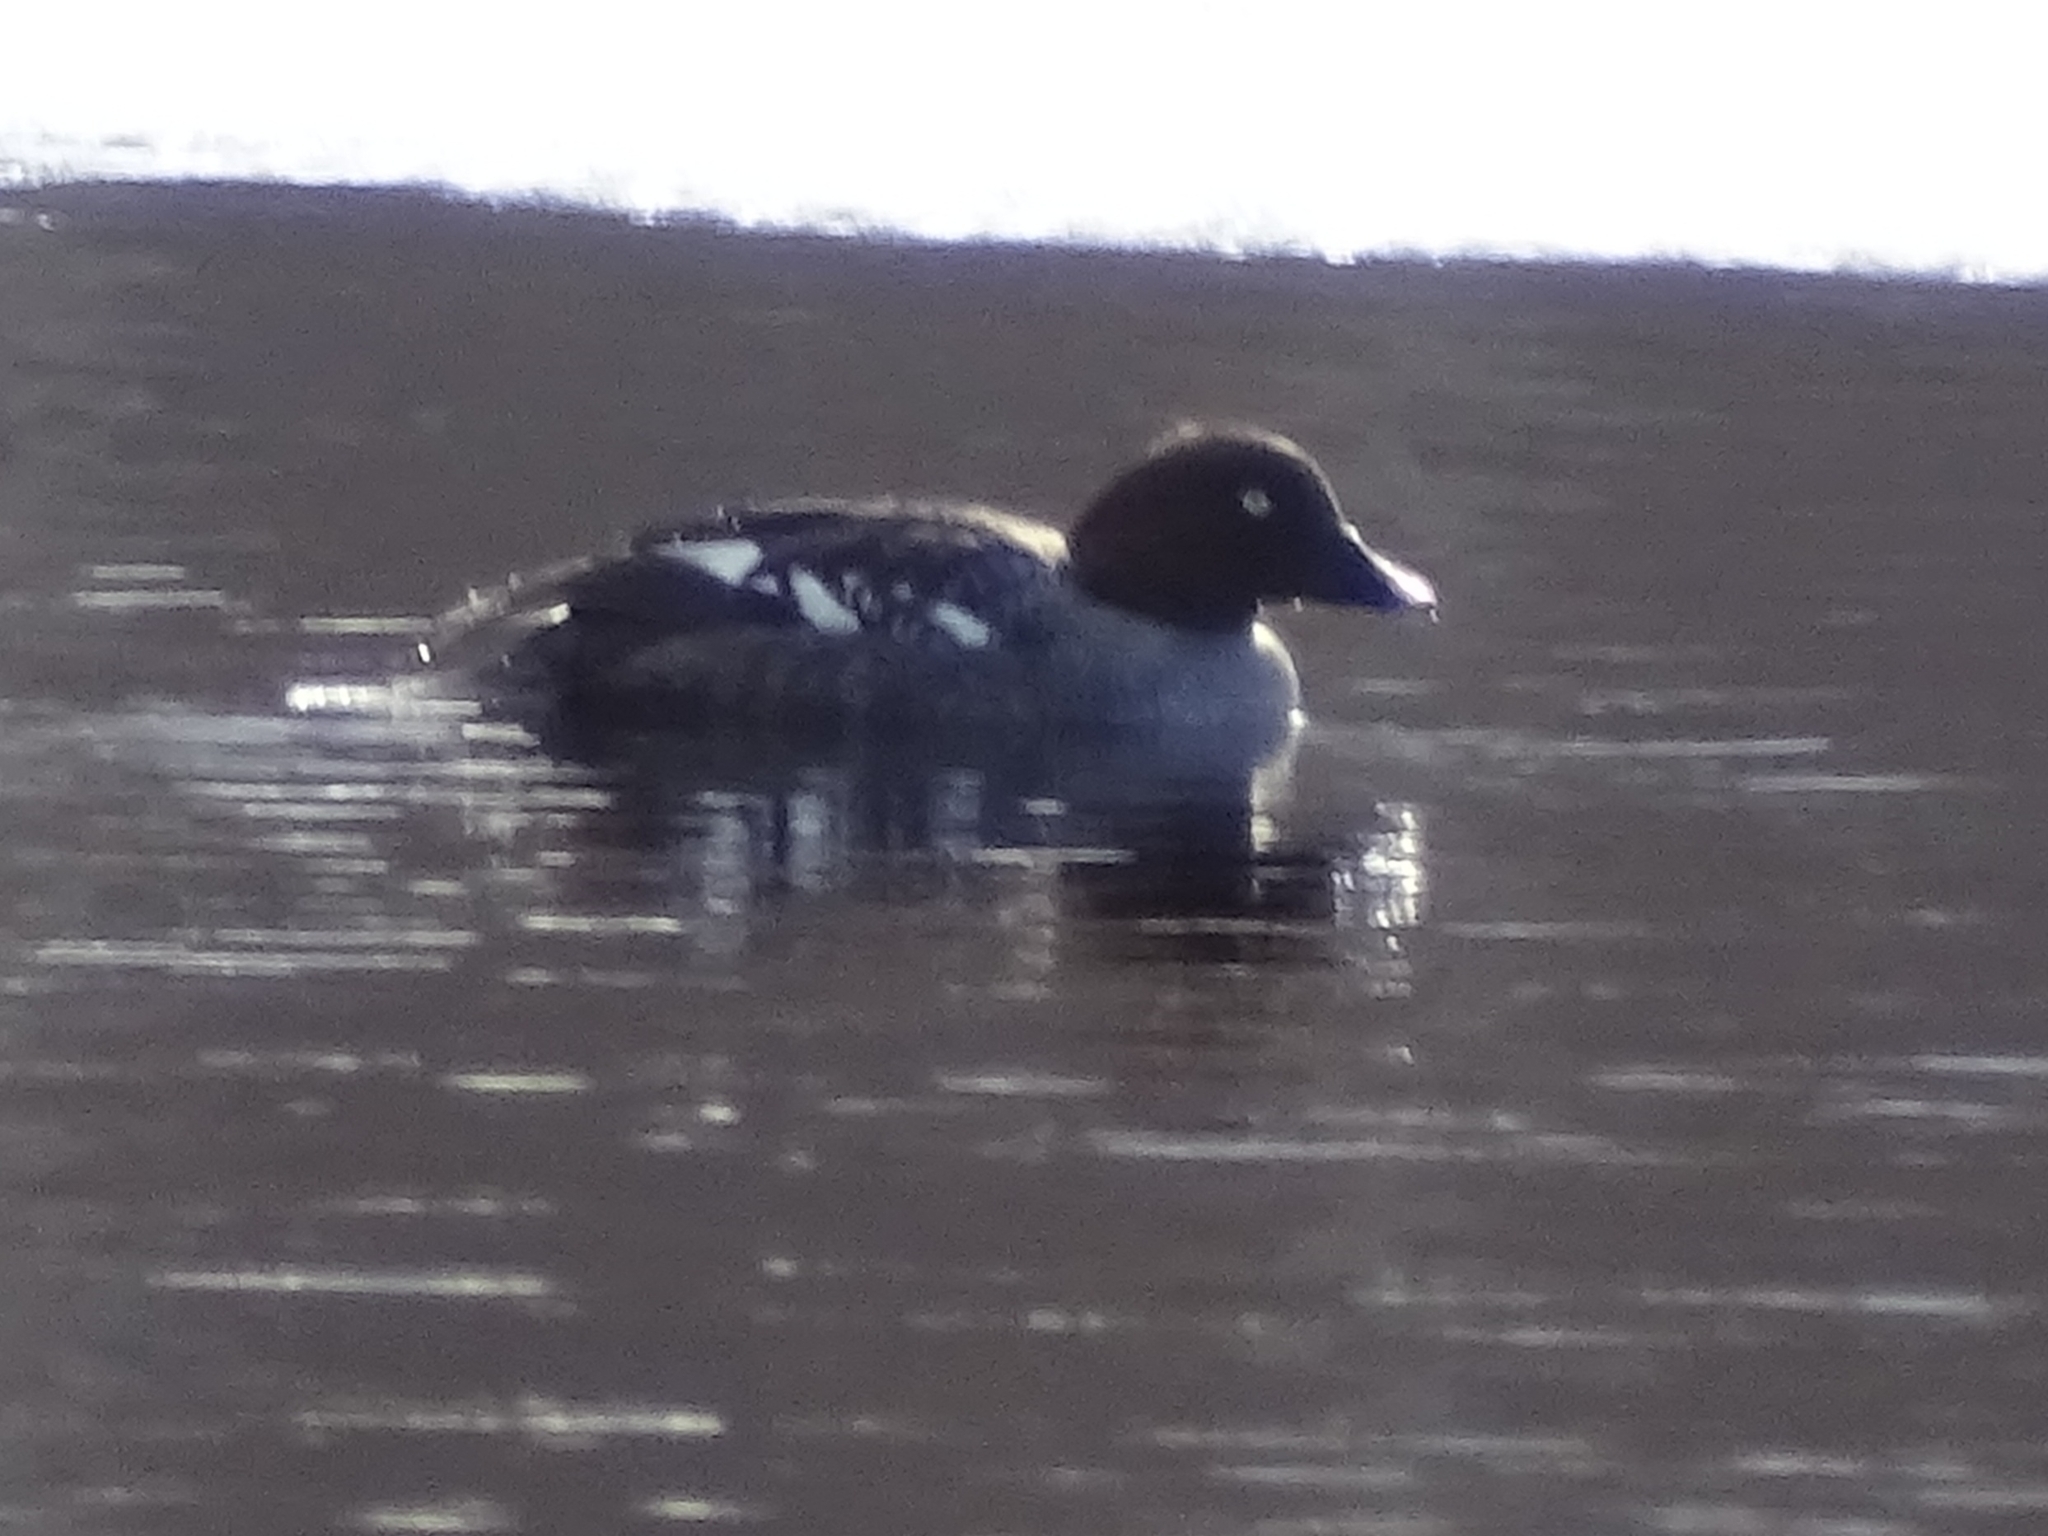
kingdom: Animalia
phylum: Chordata
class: Aves
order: Anseriformes
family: Anatidae
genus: Bucephala
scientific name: Bucephala clangula
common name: Common goldeneye
